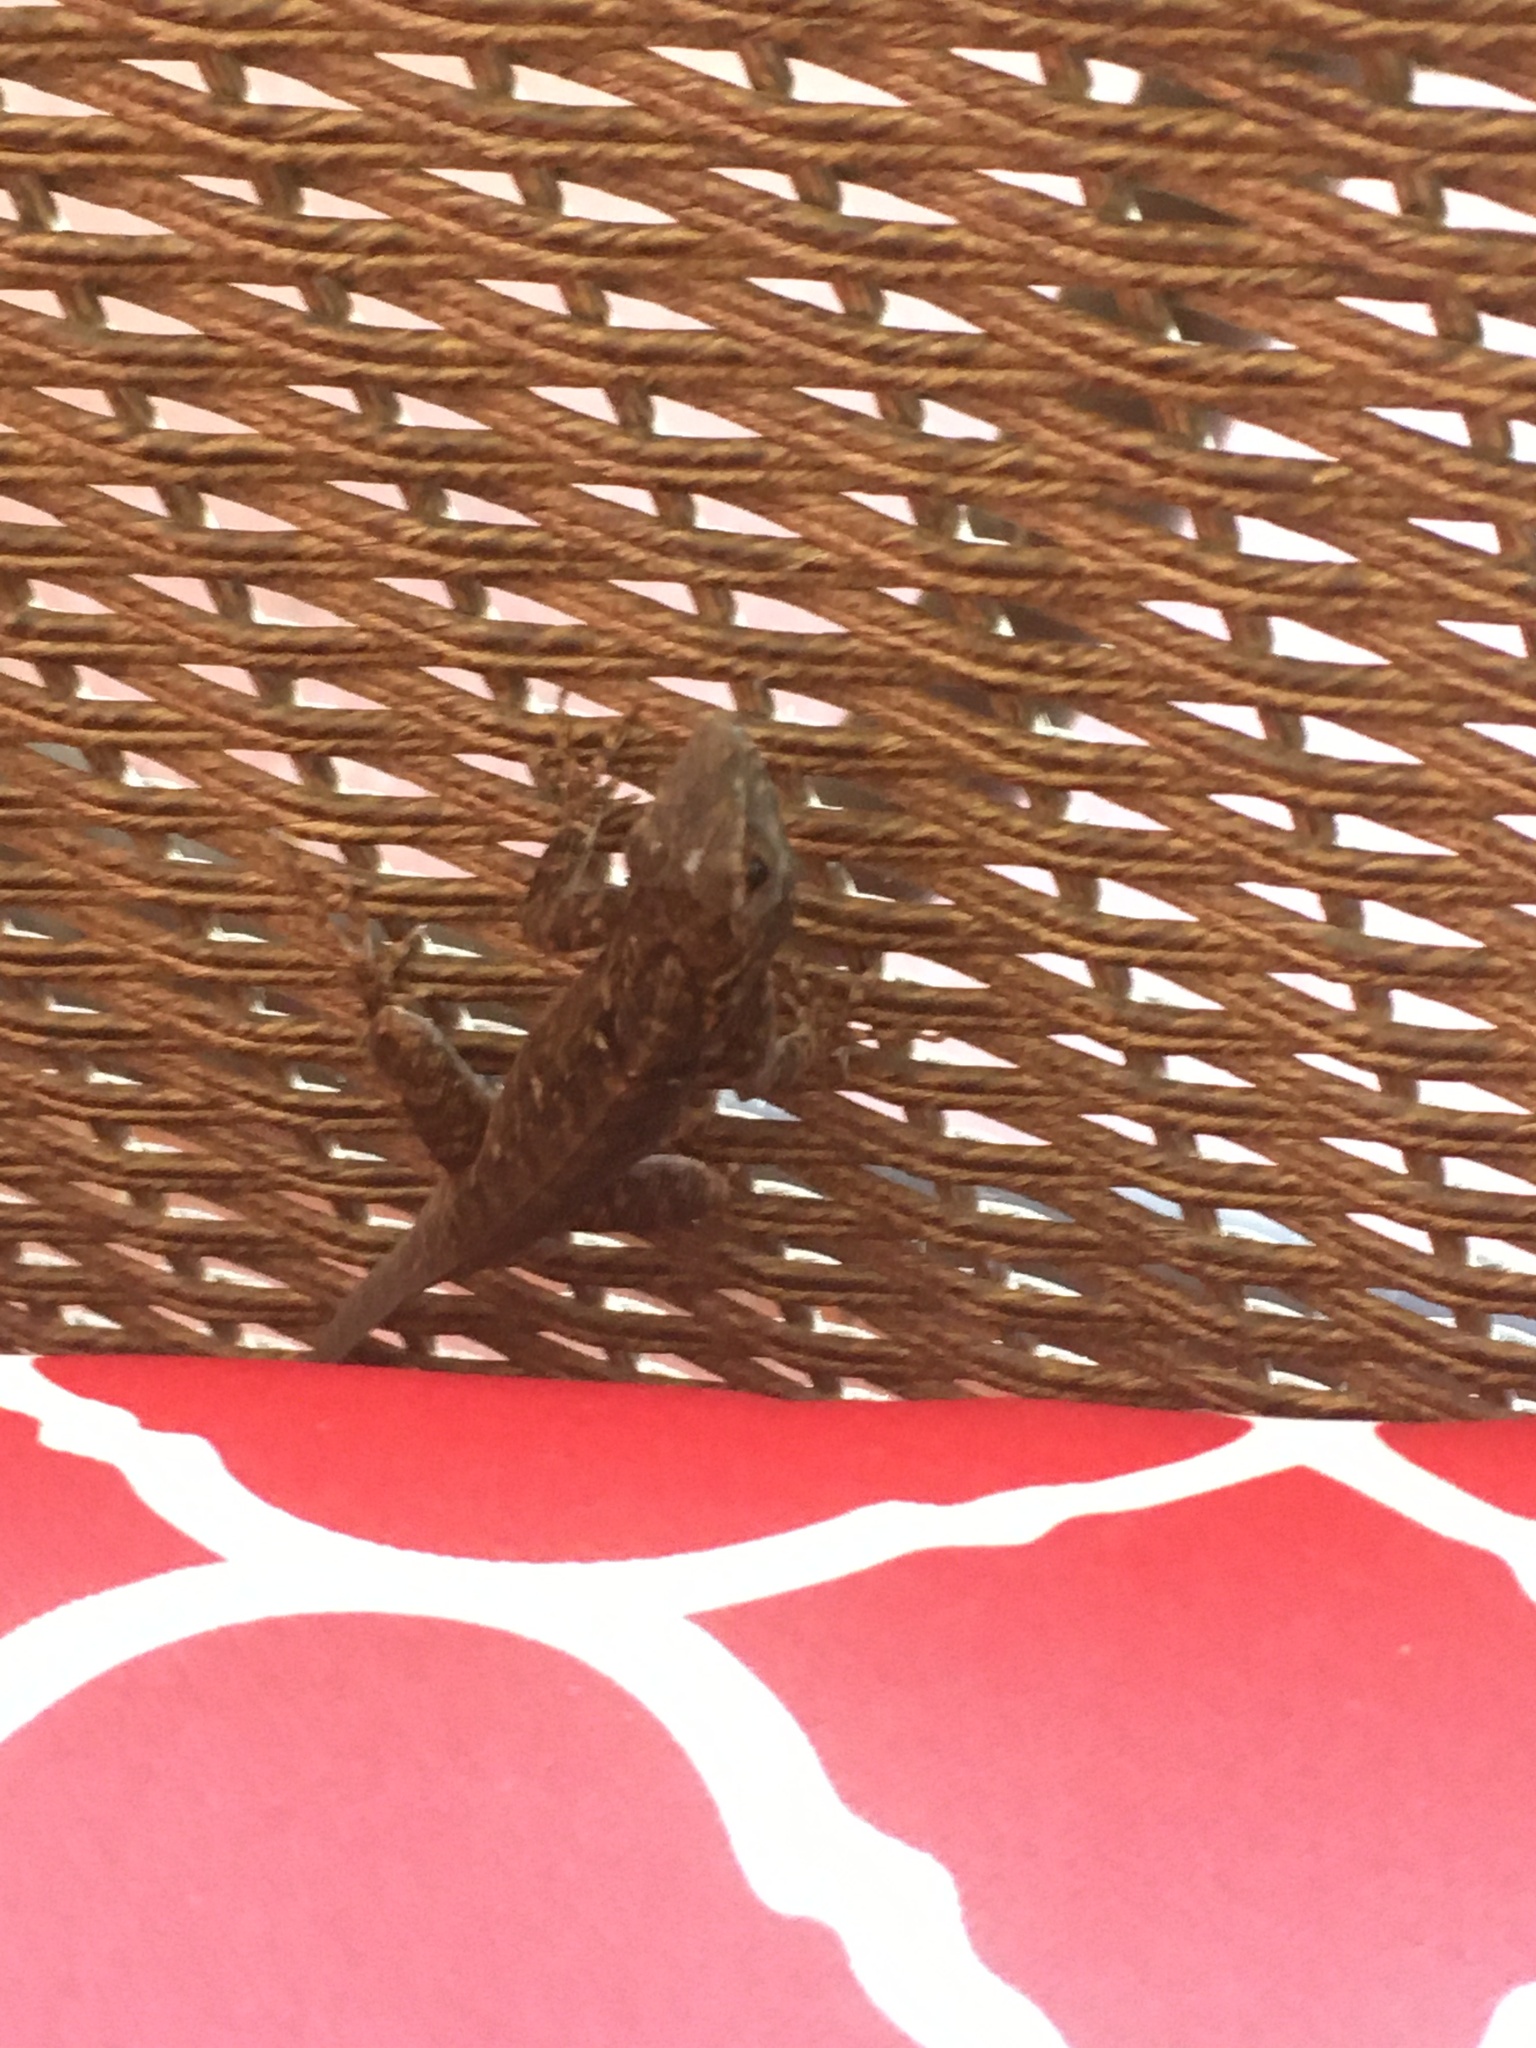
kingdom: Animalia
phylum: Chordata
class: Squamata
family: Dactyloidae
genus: Anolis
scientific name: Anolis sagrei
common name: Brown anole
